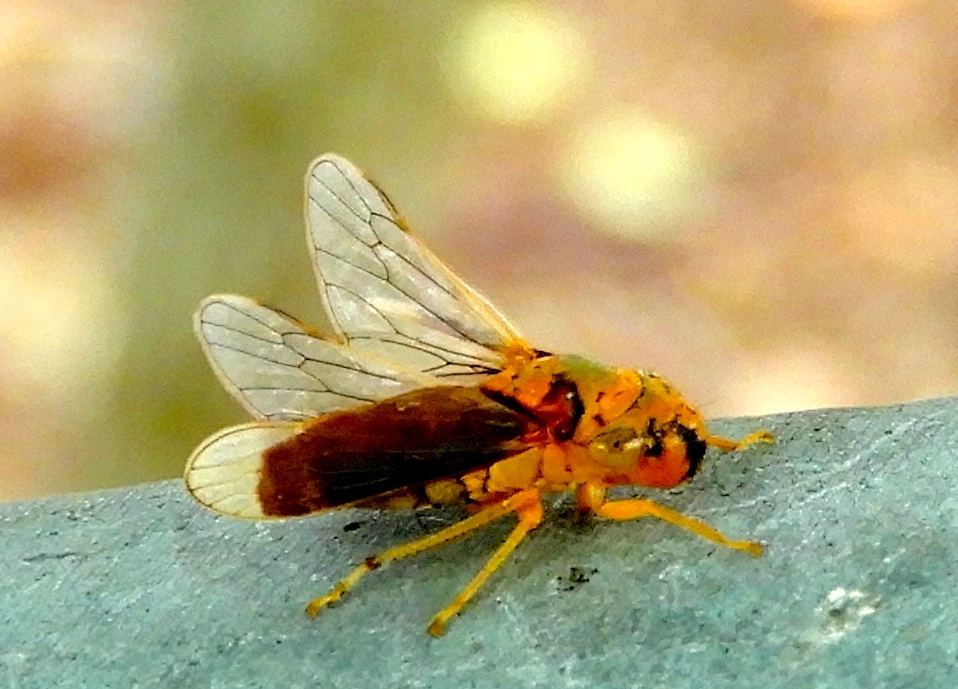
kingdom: Animalia
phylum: Arthropoda
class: Insecta
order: Hemiptera
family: Cicadellidae
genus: Oncometopia
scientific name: Oncometopia clarior
